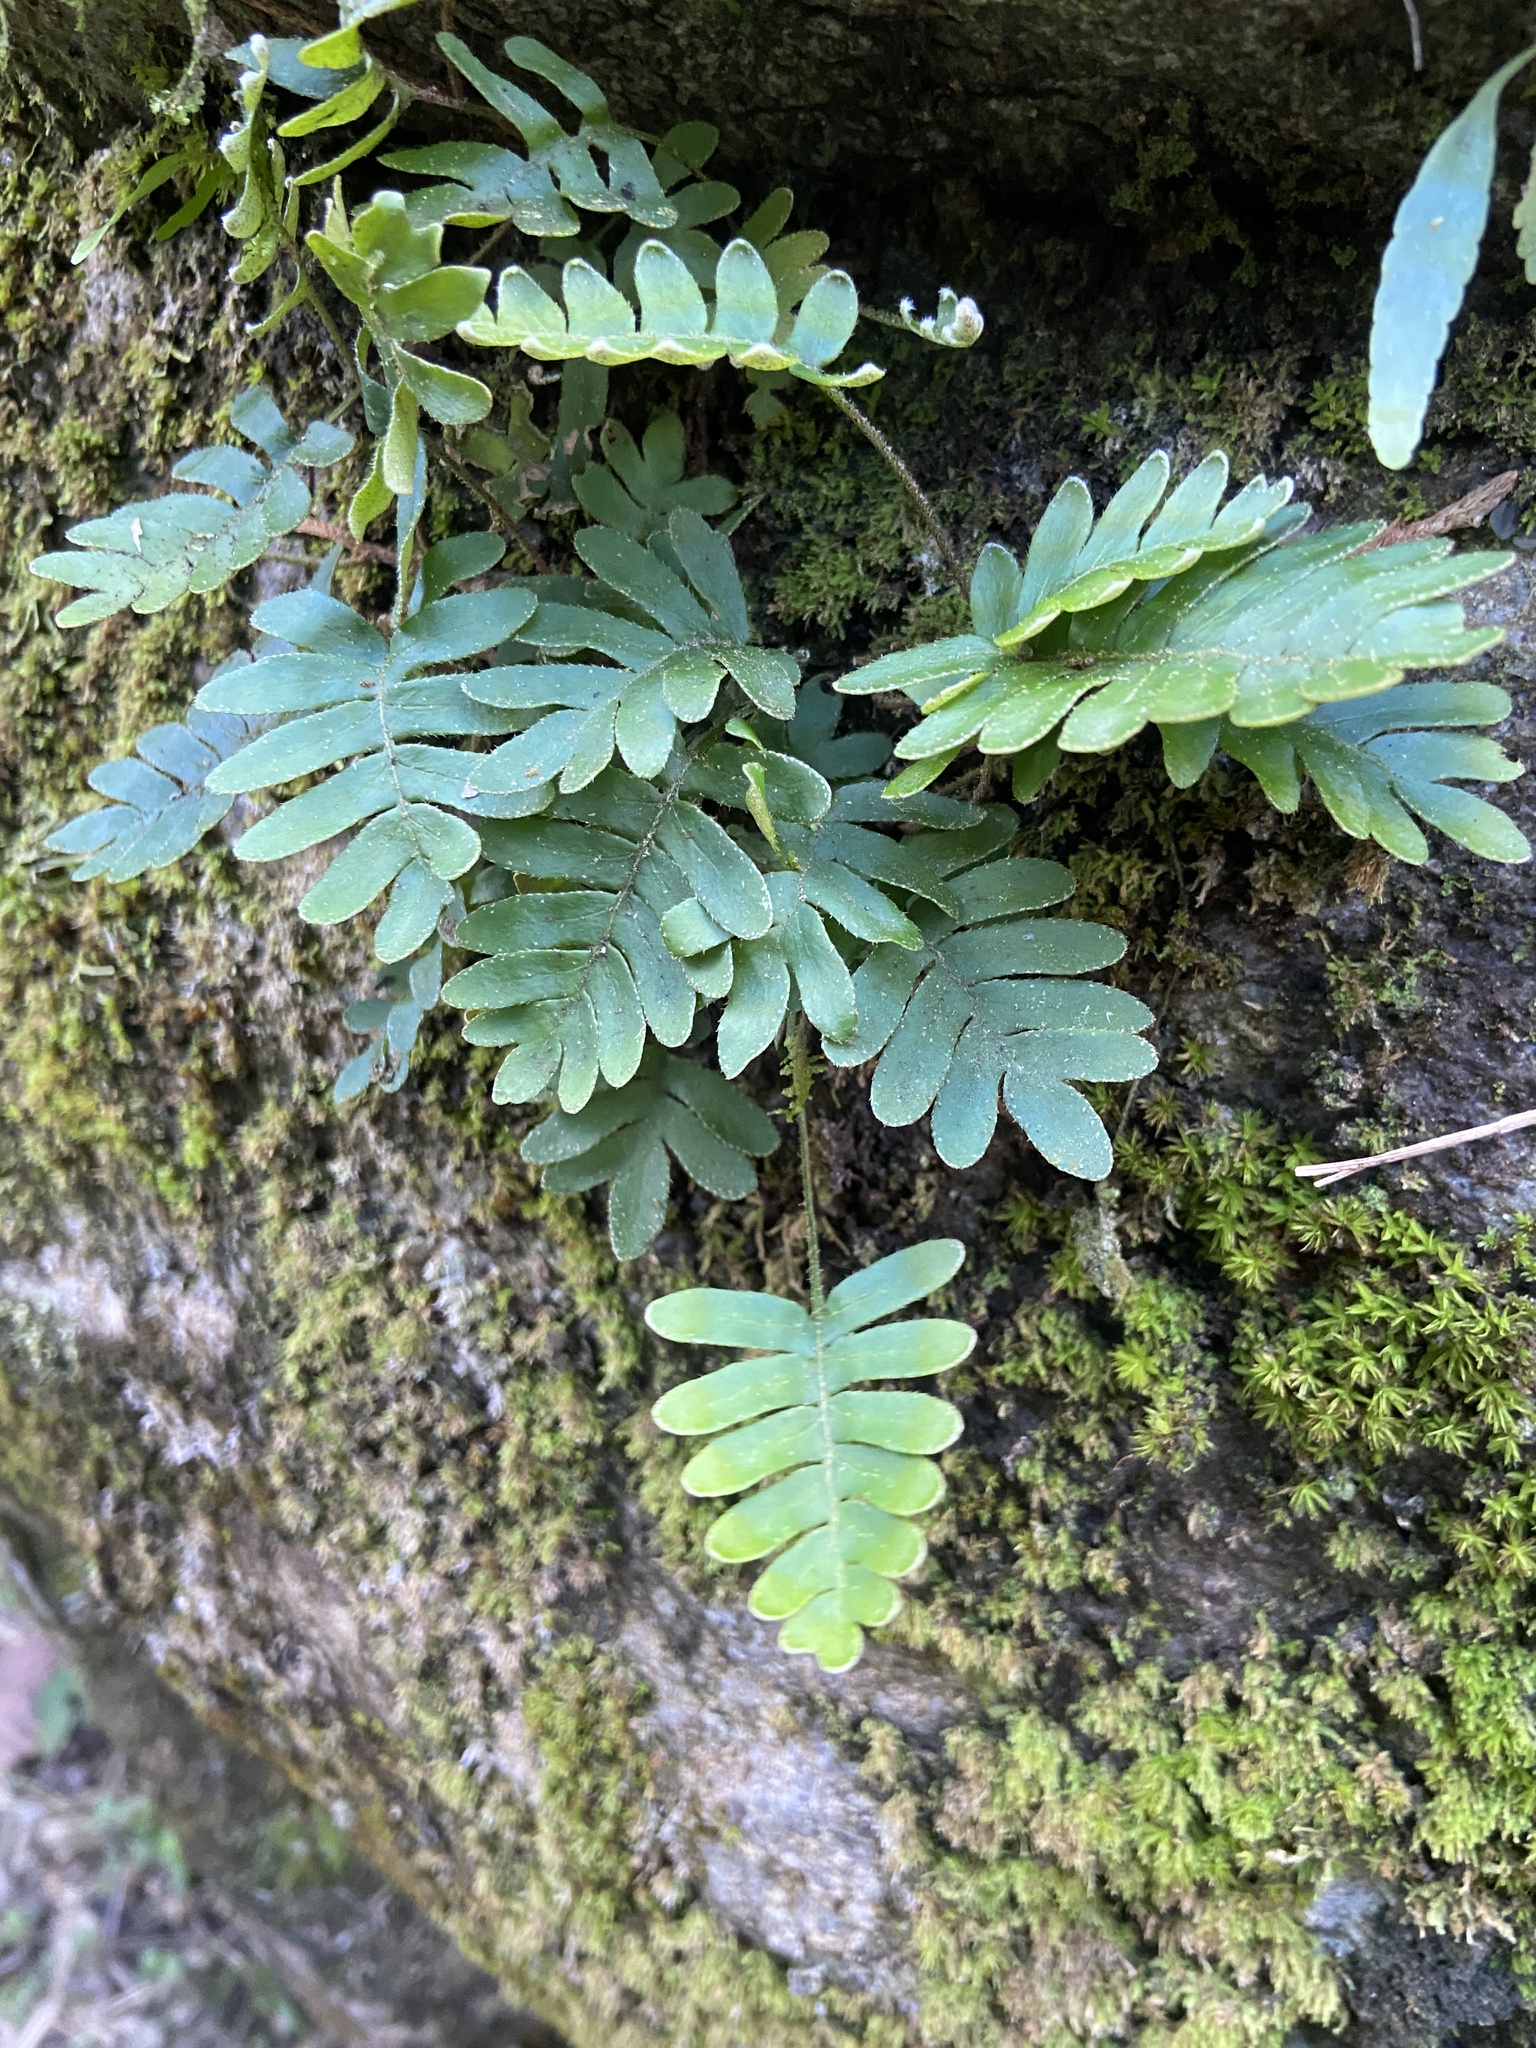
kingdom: Plantae
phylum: Tracheophyta
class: Polypodiopsida
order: Polypodiales
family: Polypodiaceae
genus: Pleopeltis
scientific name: Pleopeltis polypodioides
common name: Resurrection fern
